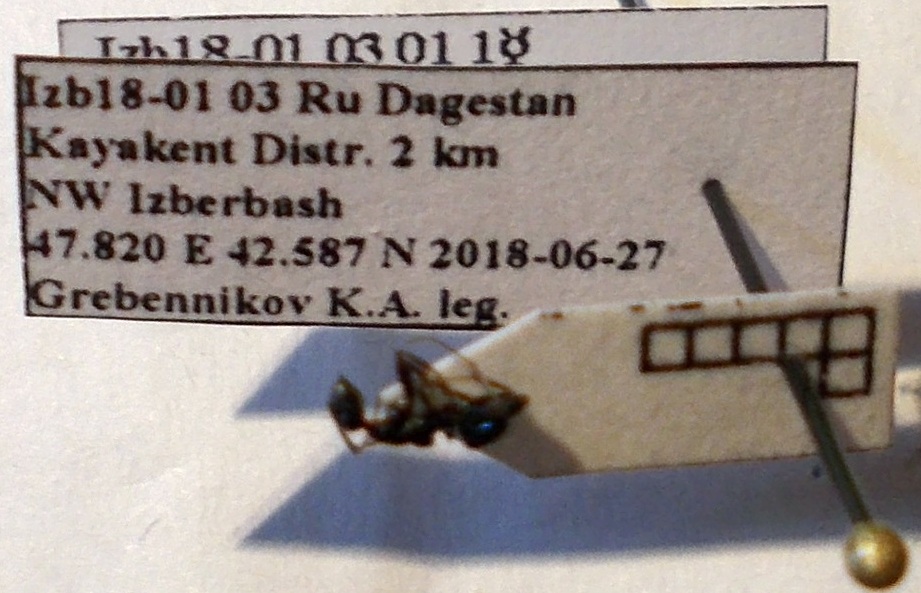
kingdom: Animalia
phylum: Arthropoda
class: Insecta
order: Hymenoptera
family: Formicidae
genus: Camponotus
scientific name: Camponotus piceus
